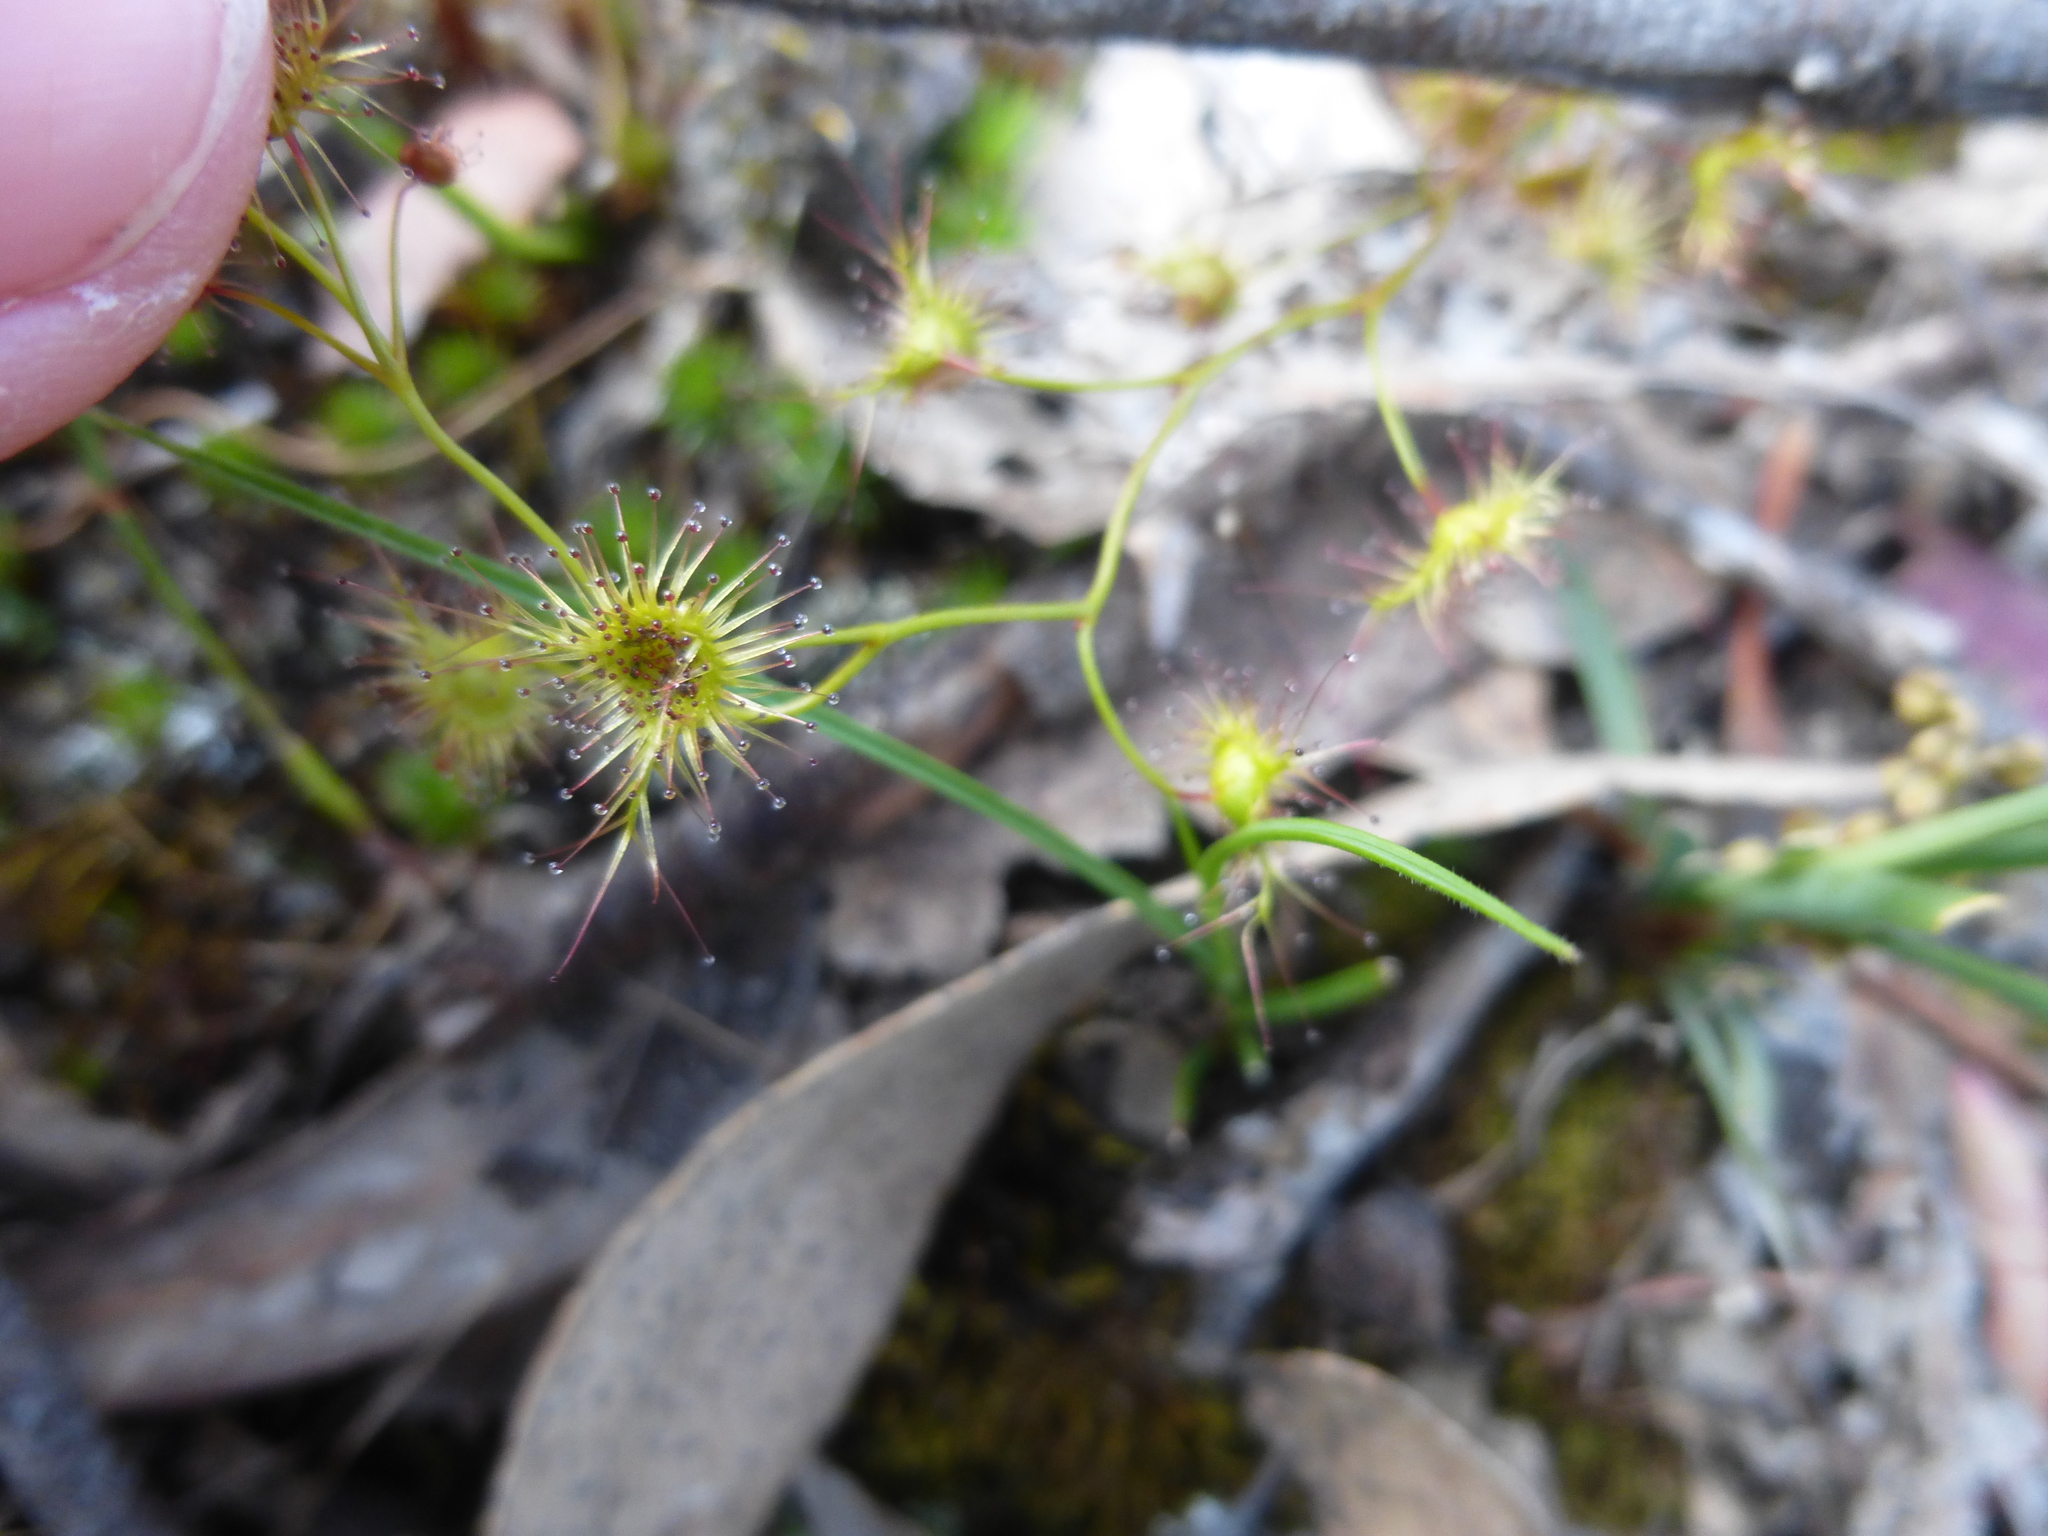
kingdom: Plantae
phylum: Tracheophyta
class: Magnoliopsida
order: Caryophyllales
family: Droseraceae
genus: Drosera
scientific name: Drosera peltata
